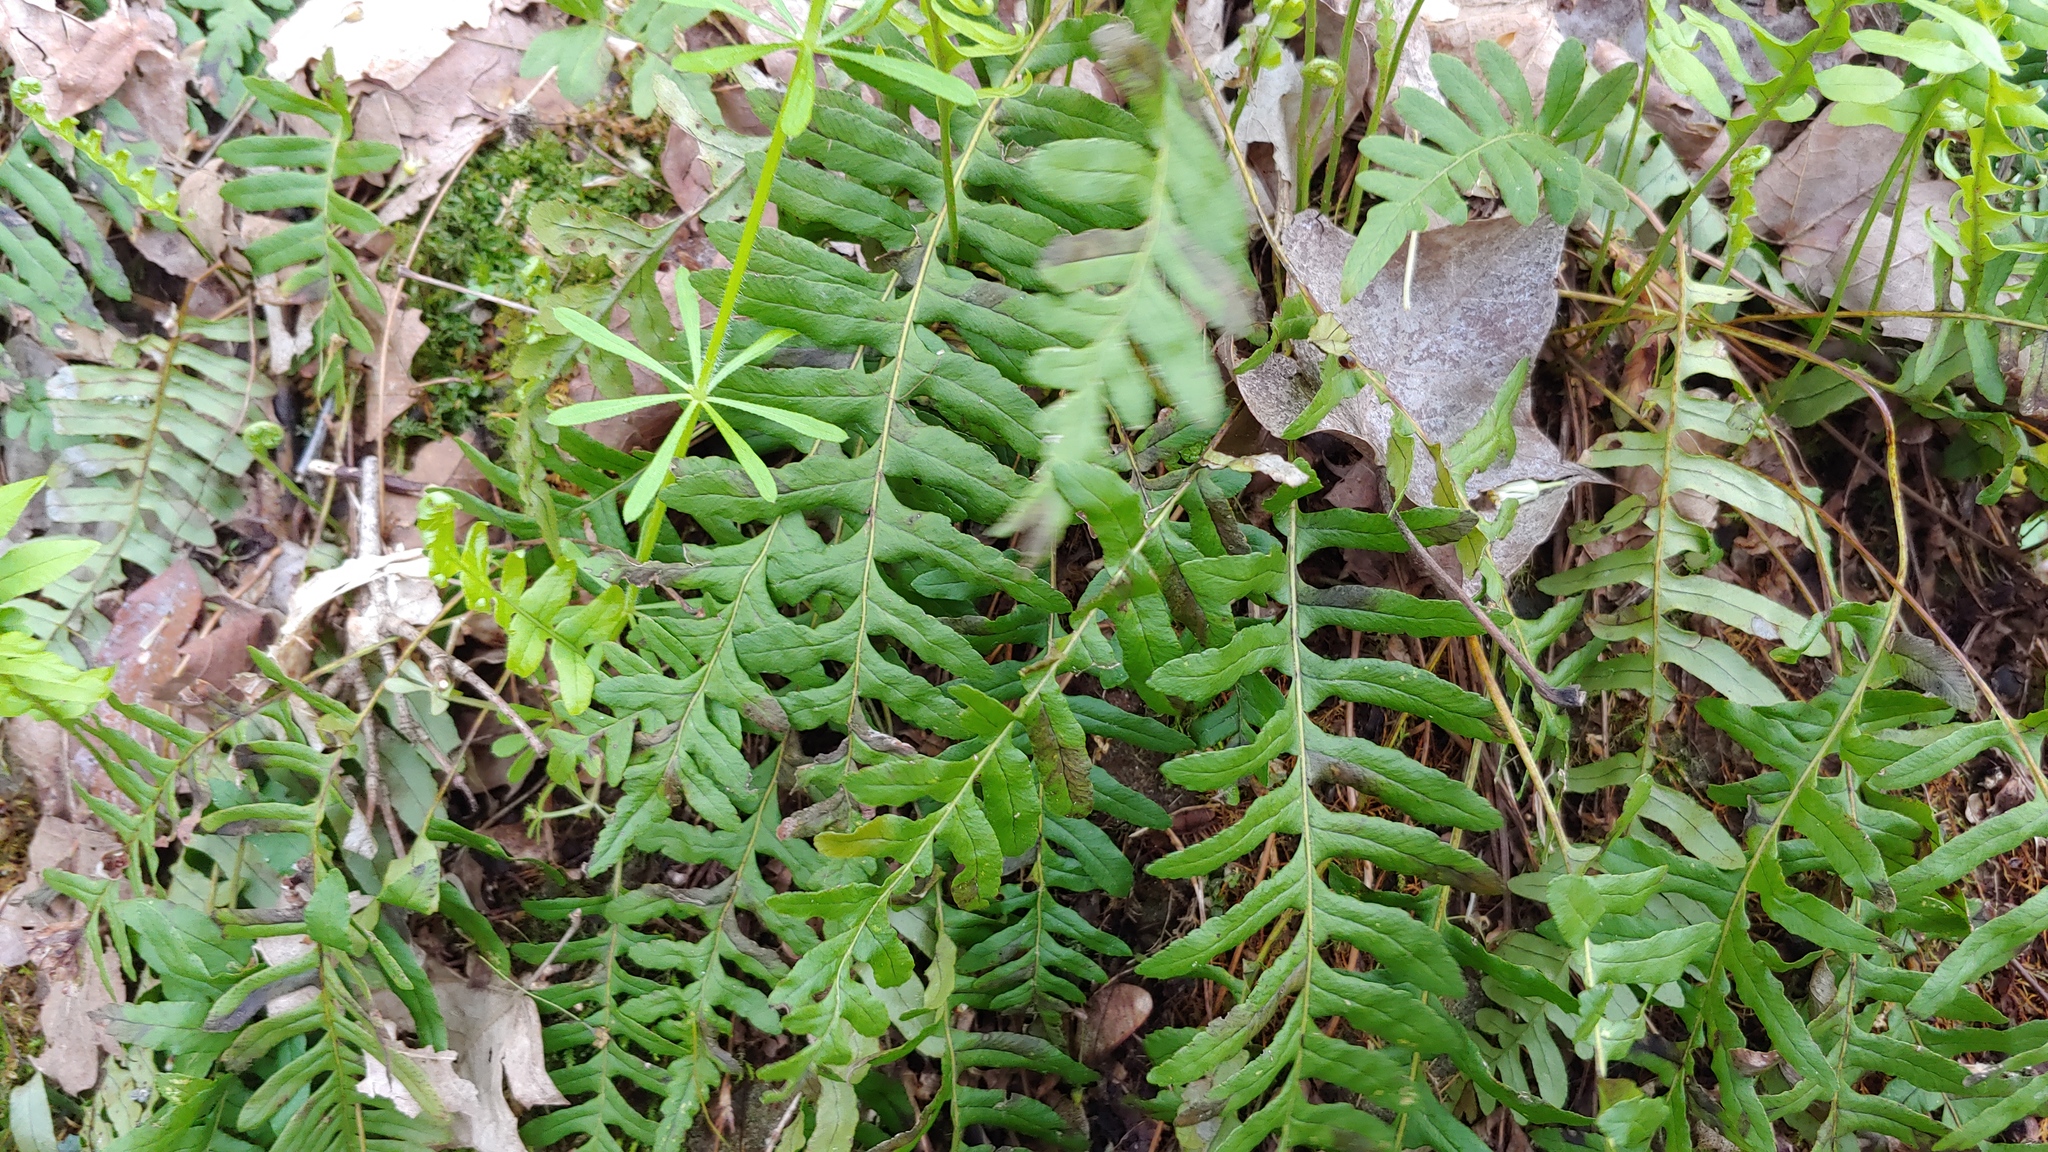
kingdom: Plantae
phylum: Tracheophyta
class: Polypodiopsida
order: Polypodiales
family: Polypodiaceae
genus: Polypodium
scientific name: Polypodium virginianum
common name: American wall fern
